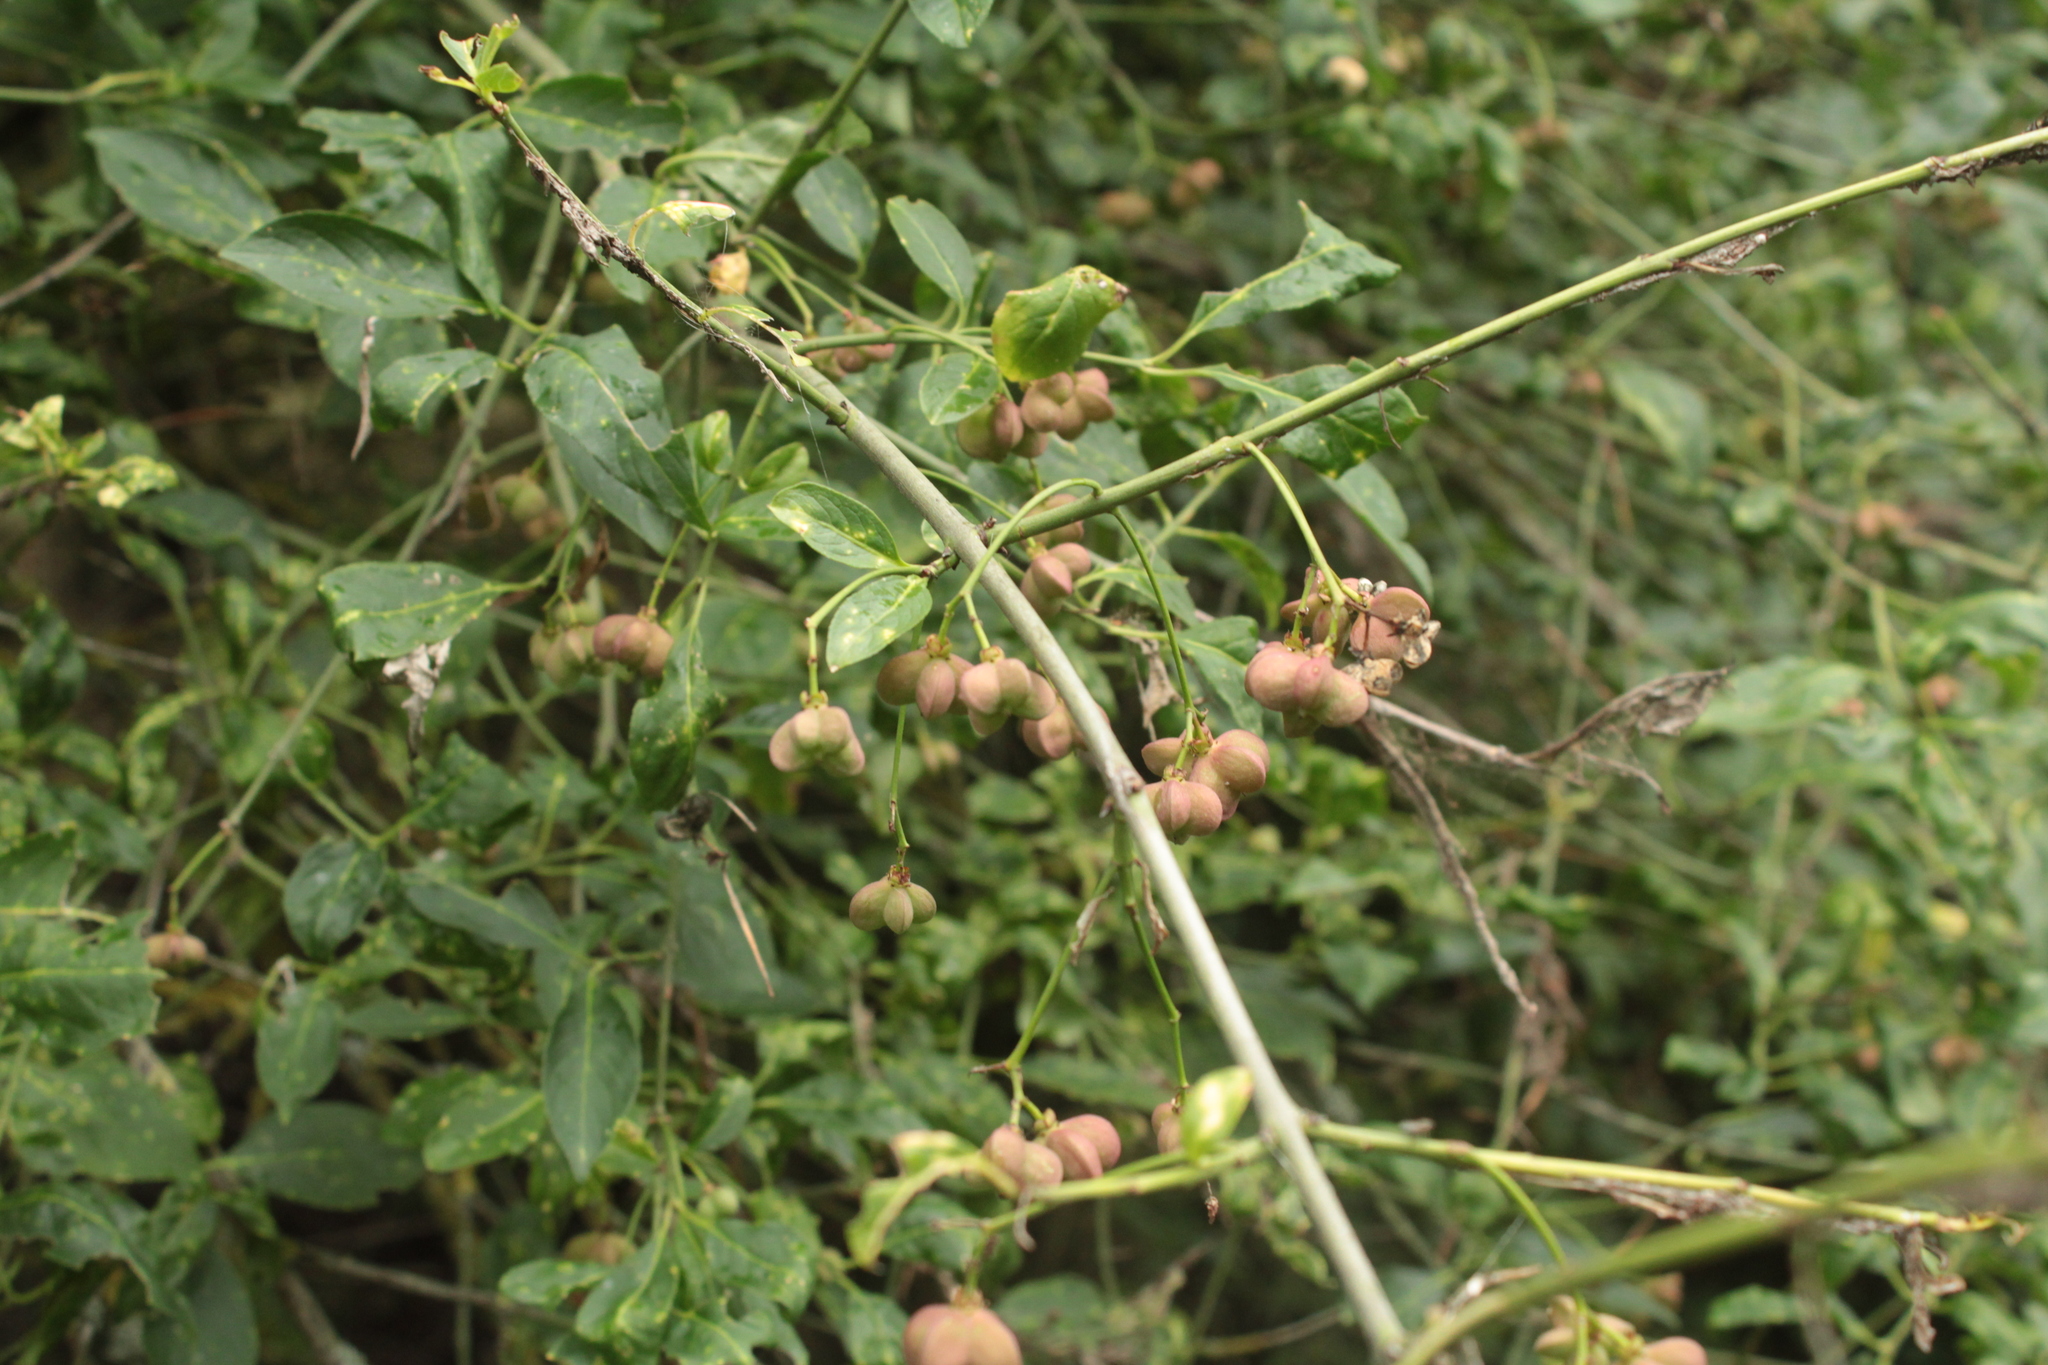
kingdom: Plantae
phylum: Tracheophyta
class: Magnoliopsida
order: Celastrales
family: Celastraceae
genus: Euonymus
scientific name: Euonymus europaeus
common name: Spindle
